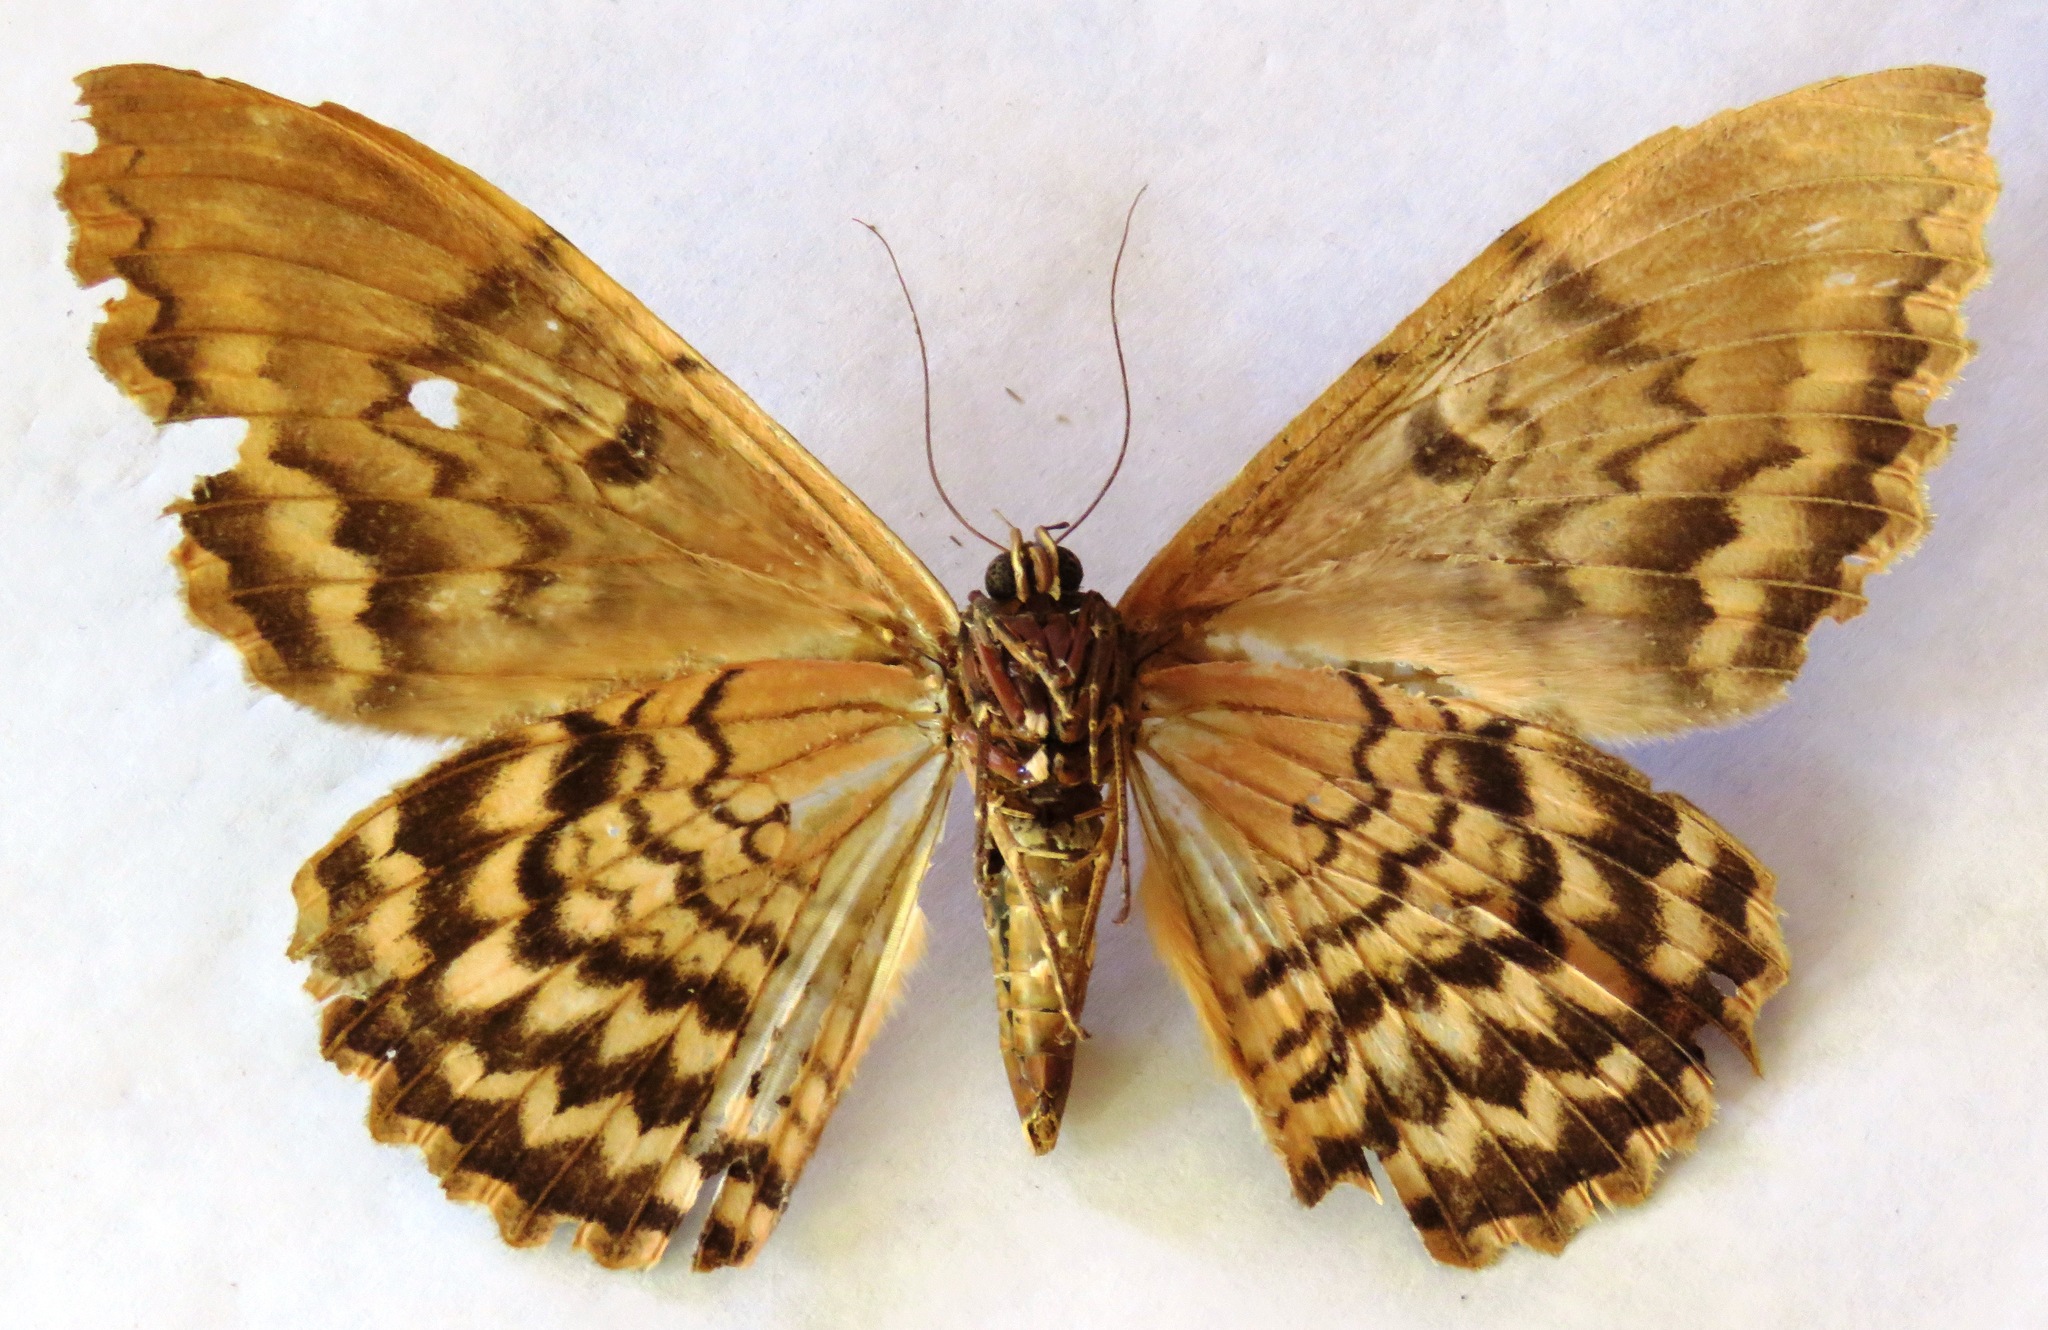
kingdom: Animalia
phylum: Arthropoda
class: Insecta
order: Lepidoptera
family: Erebidae
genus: Thysania
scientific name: Thysania zenobia
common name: Owl moth
